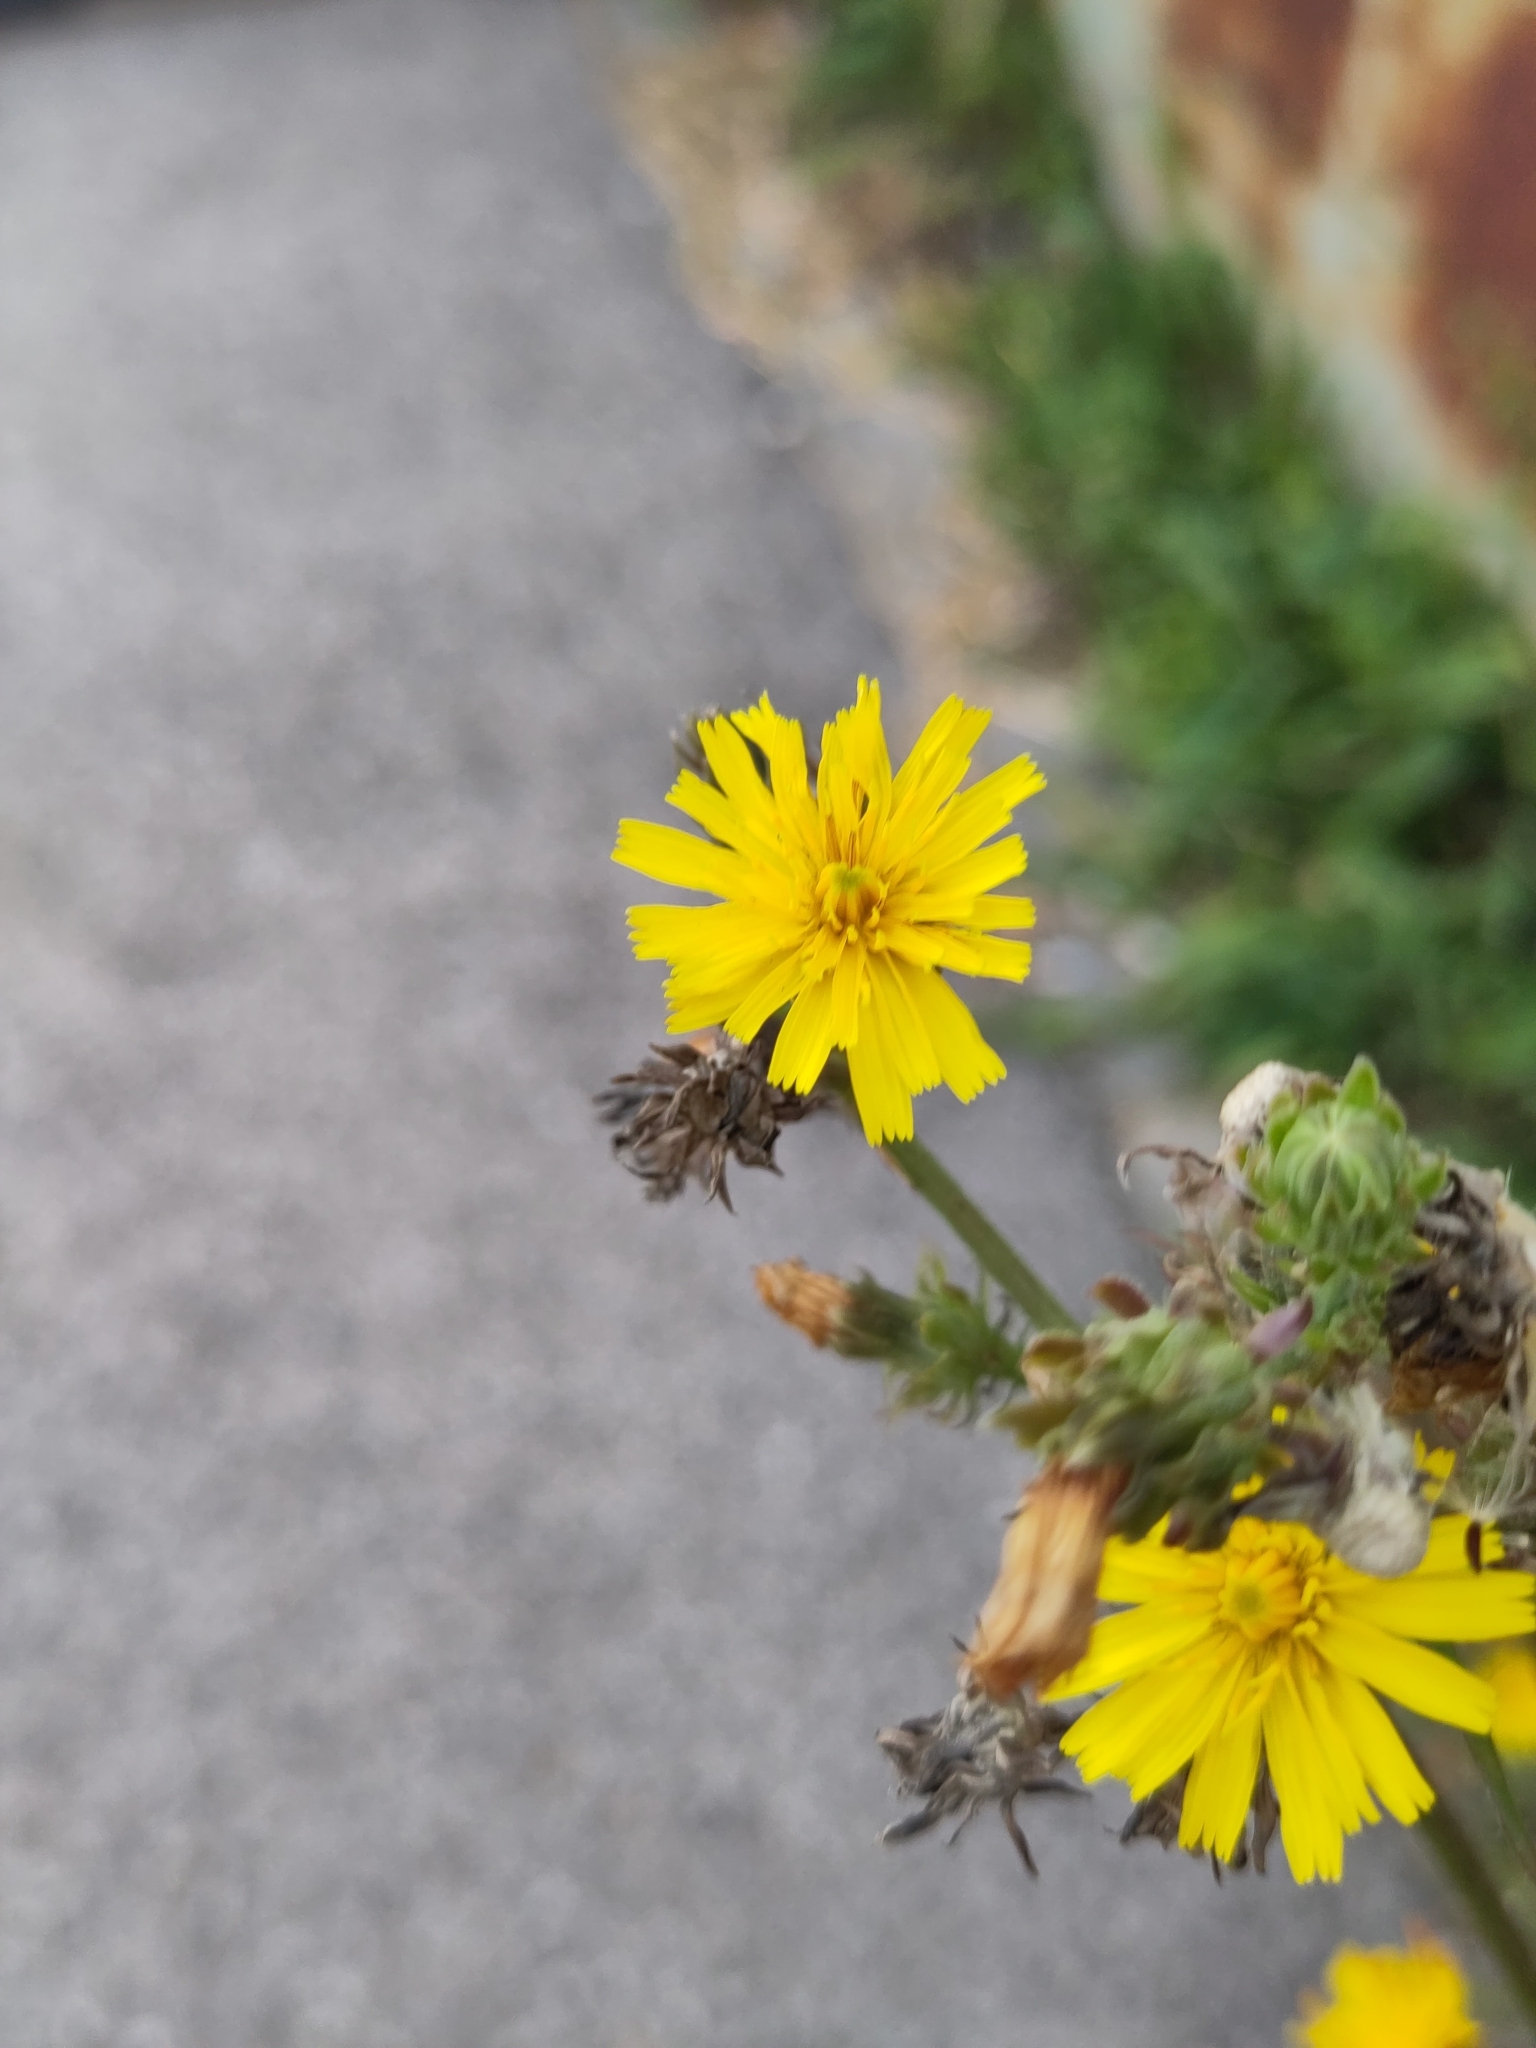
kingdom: Plantae
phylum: Tracheophyta
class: Magnoliopsida
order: Asterales
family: Asteraceae
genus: Picris
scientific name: Picris hieracioides
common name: Hawkweed oxtongue
